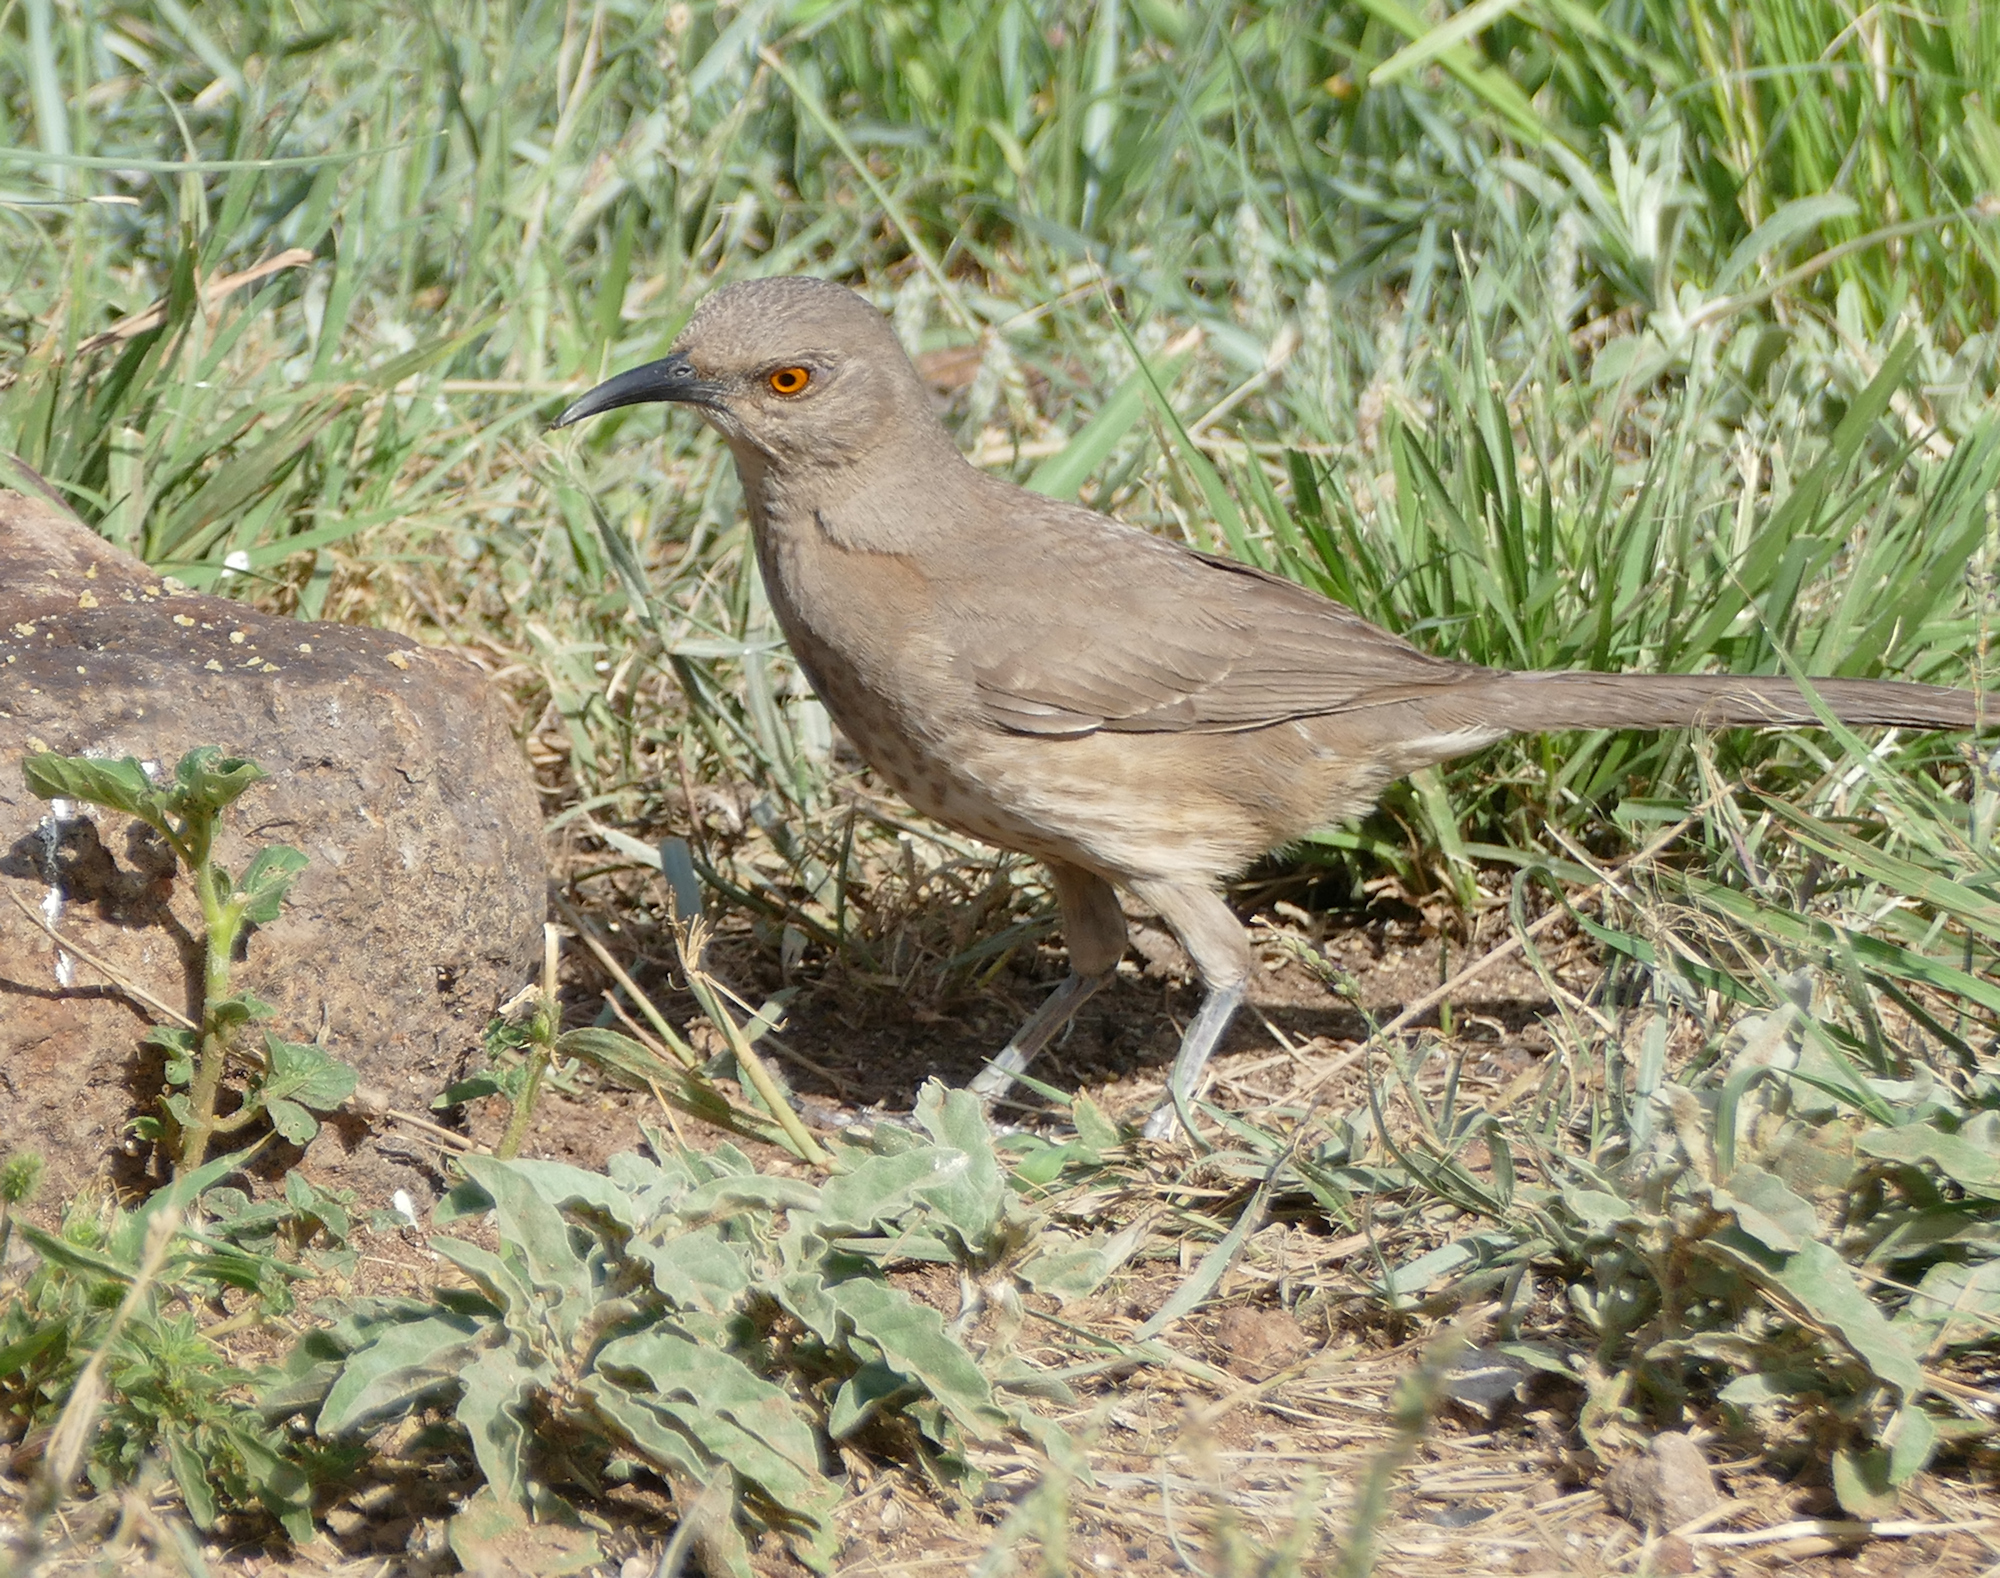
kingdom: Animalia
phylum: Chordata
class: Aves
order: Passeriformes
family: Mimidae
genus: Toxostoma
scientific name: Toxostoma curvirostre
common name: Curve-billed thrasher
